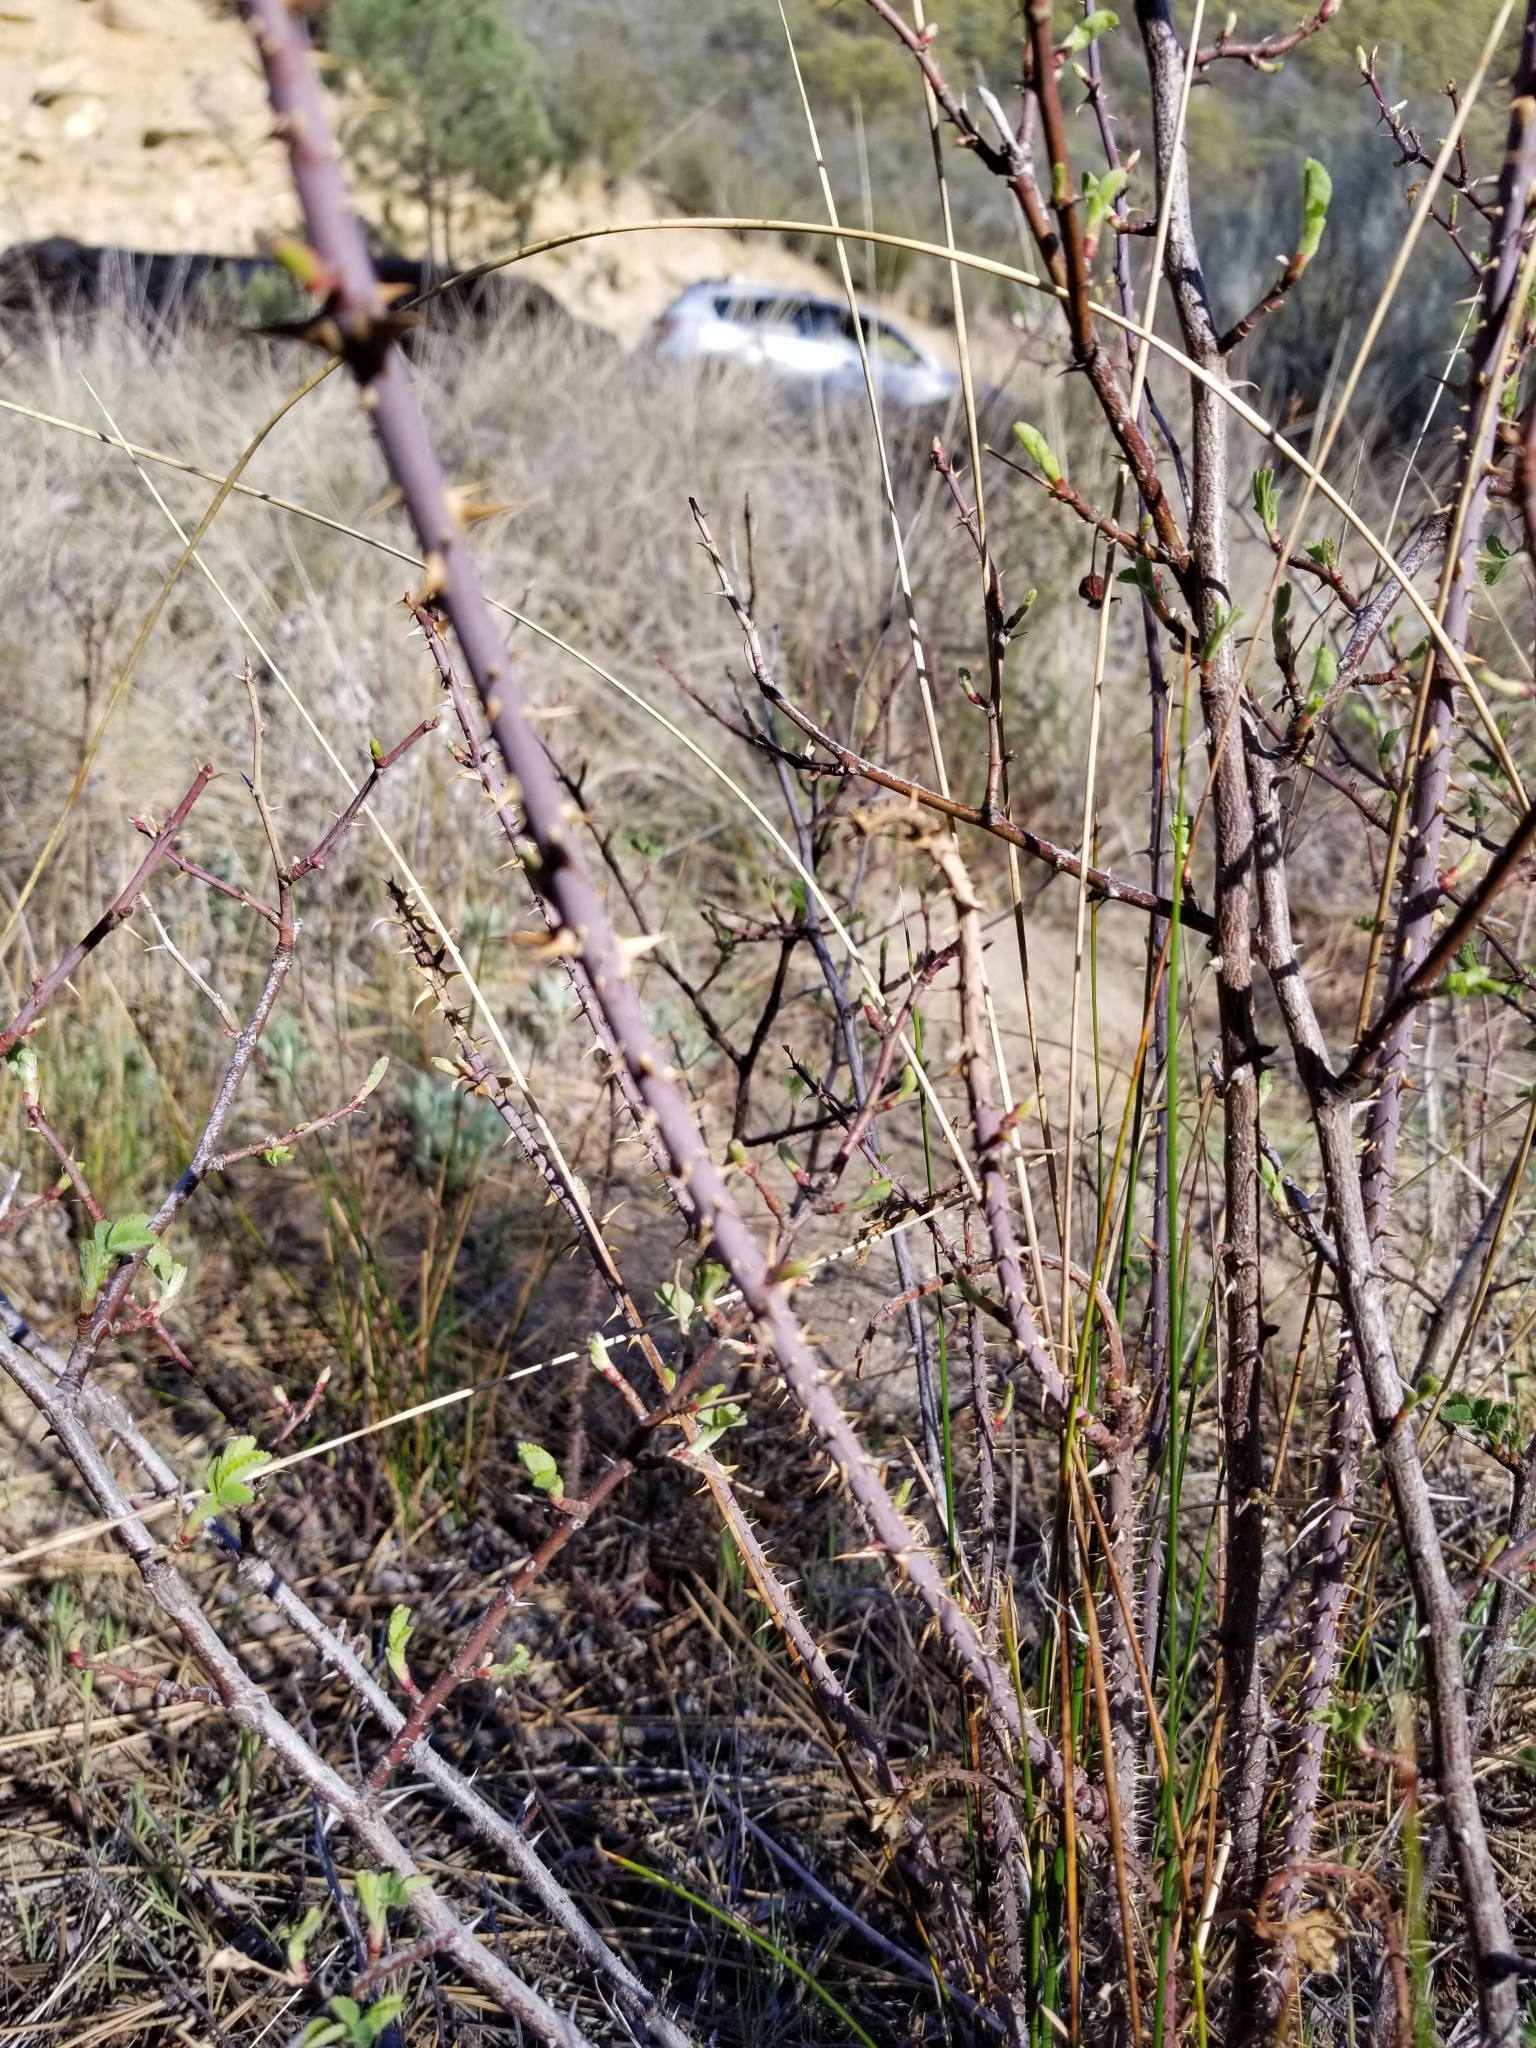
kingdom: Plantae
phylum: Tracheophyta
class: Magnoliopsida
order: Rosales
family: Rosaceae
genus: Rosa
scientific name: Rosa californica
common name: California rose
